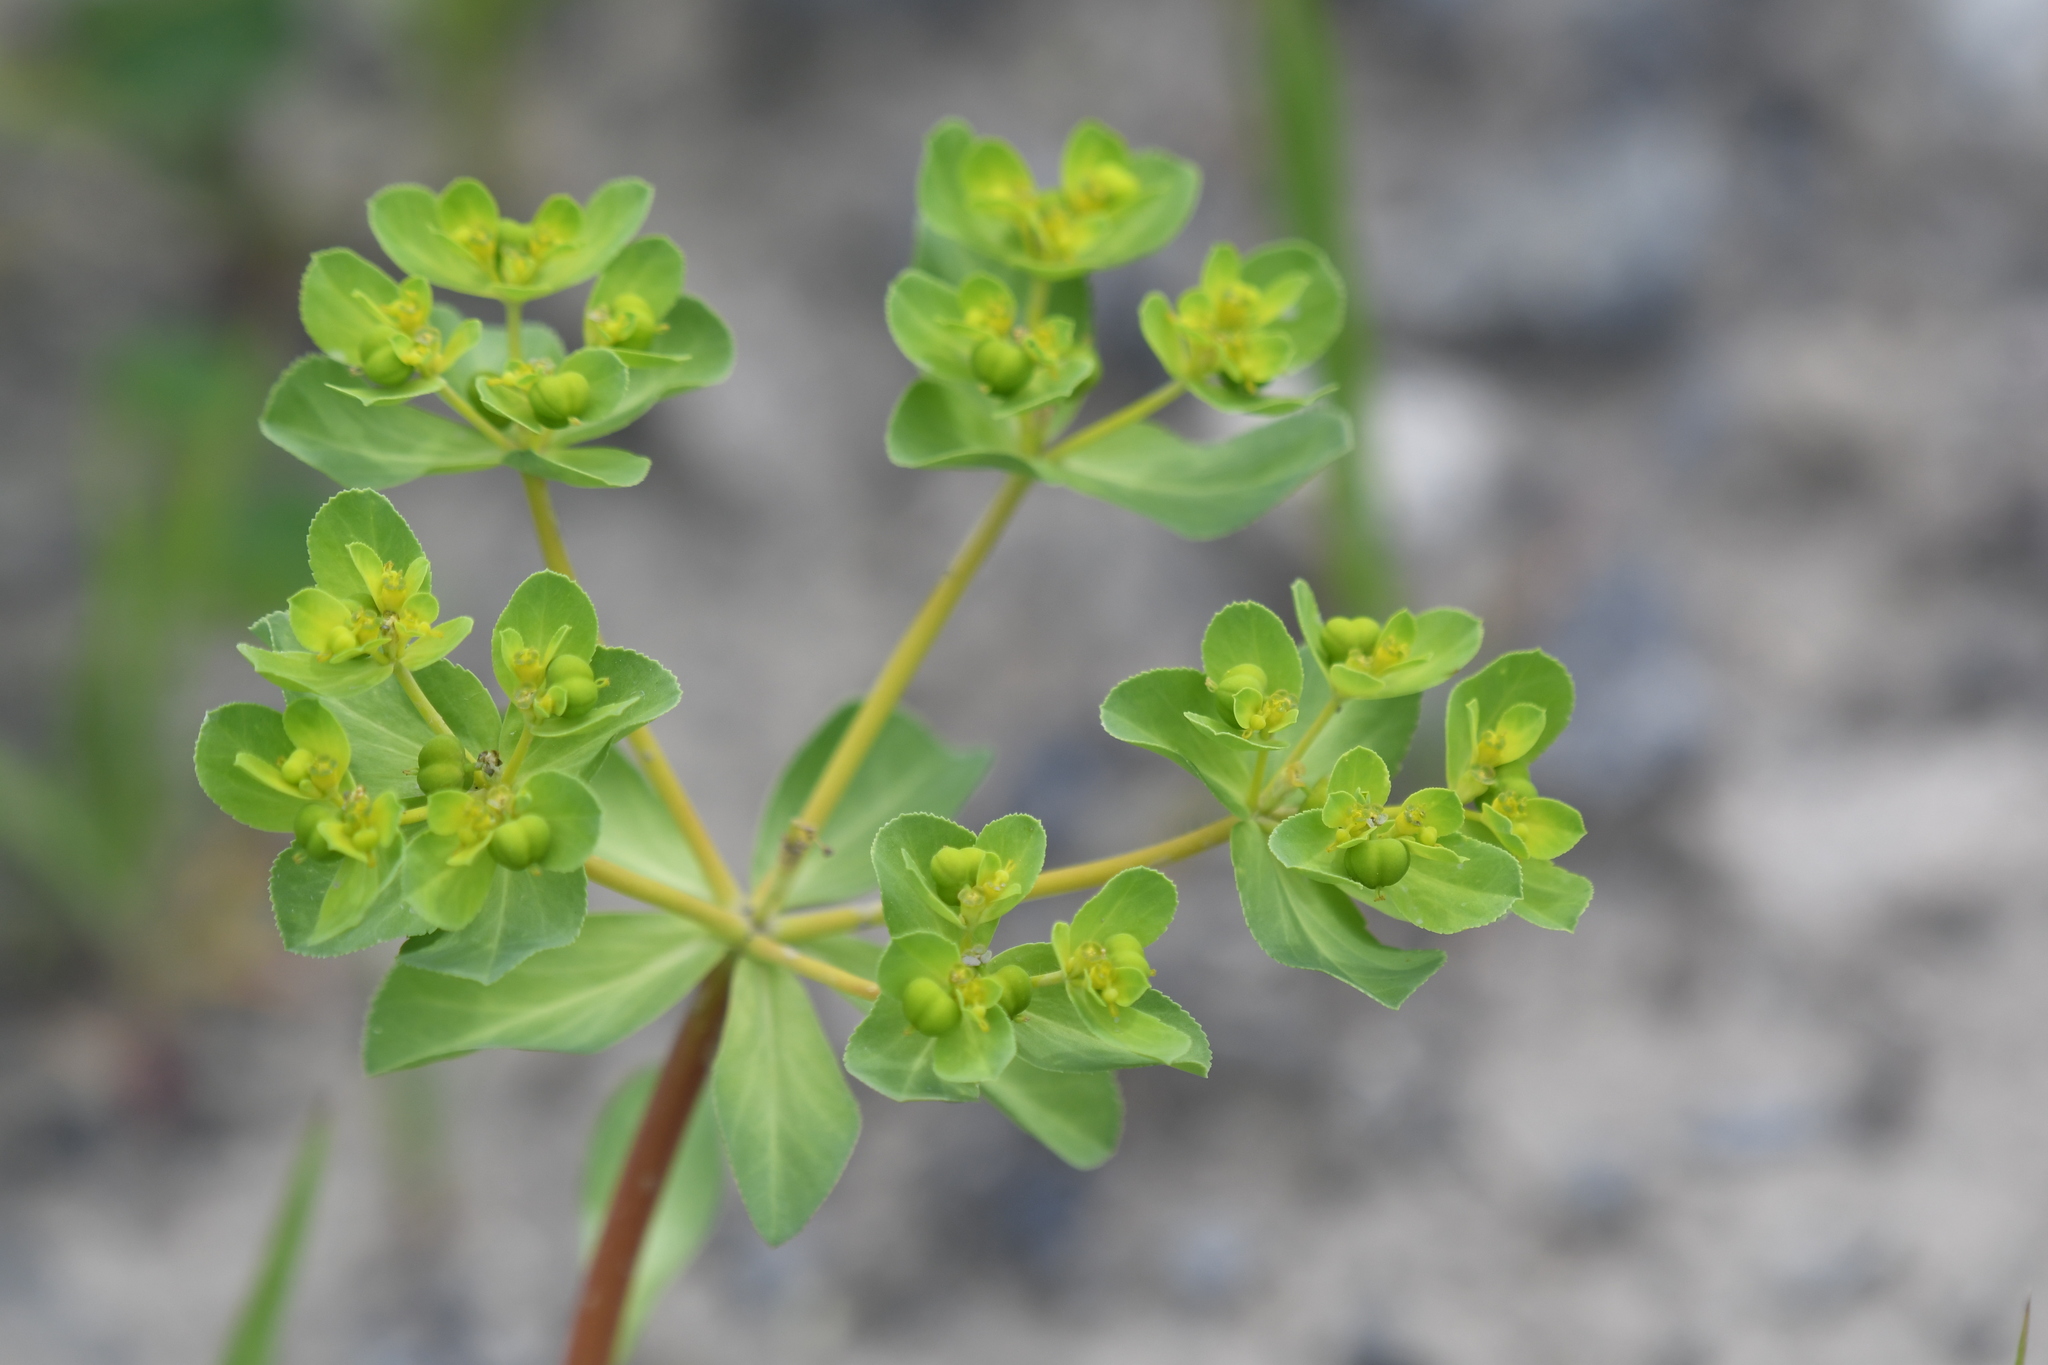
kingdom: Plantae
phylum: Tracheophyta
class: Magnoliopsida
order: Malpighiales
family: Euphorbiaceae
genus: Euphorbia
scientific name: Euphorbia helioscopia
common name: Sun spurge
